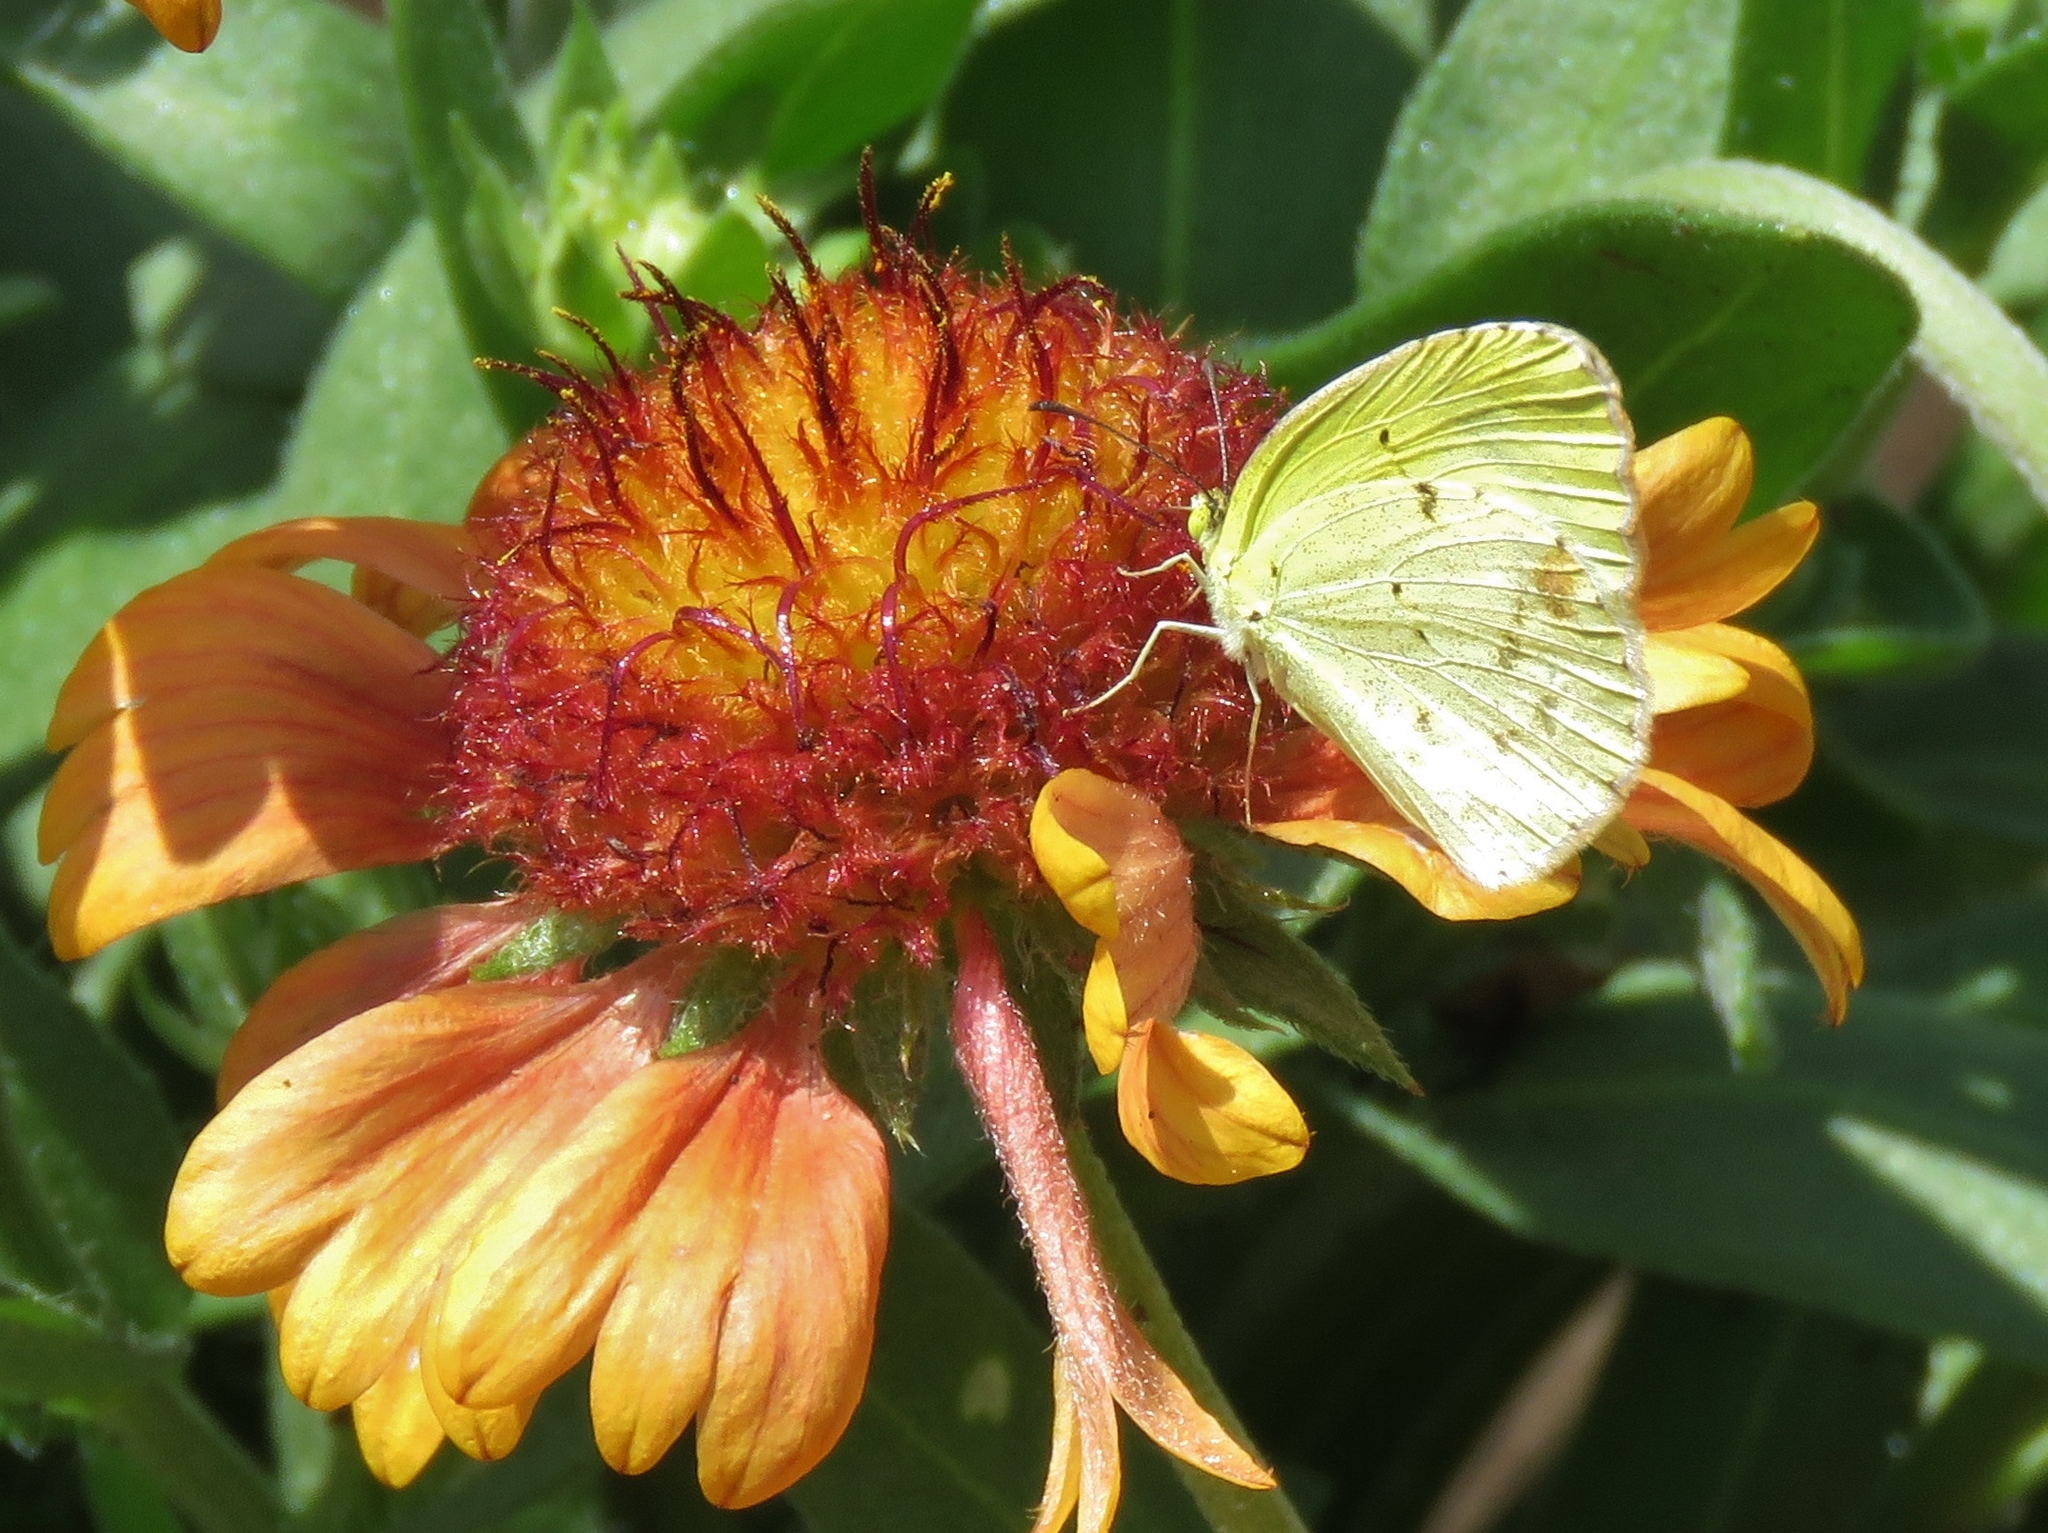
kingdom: Animalia
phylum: Arthropoda
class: Insecta
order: Lepidoptera
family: Pieridae
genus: Pyrisitia
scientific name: Pyrisitia lisa
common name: Little yellow
